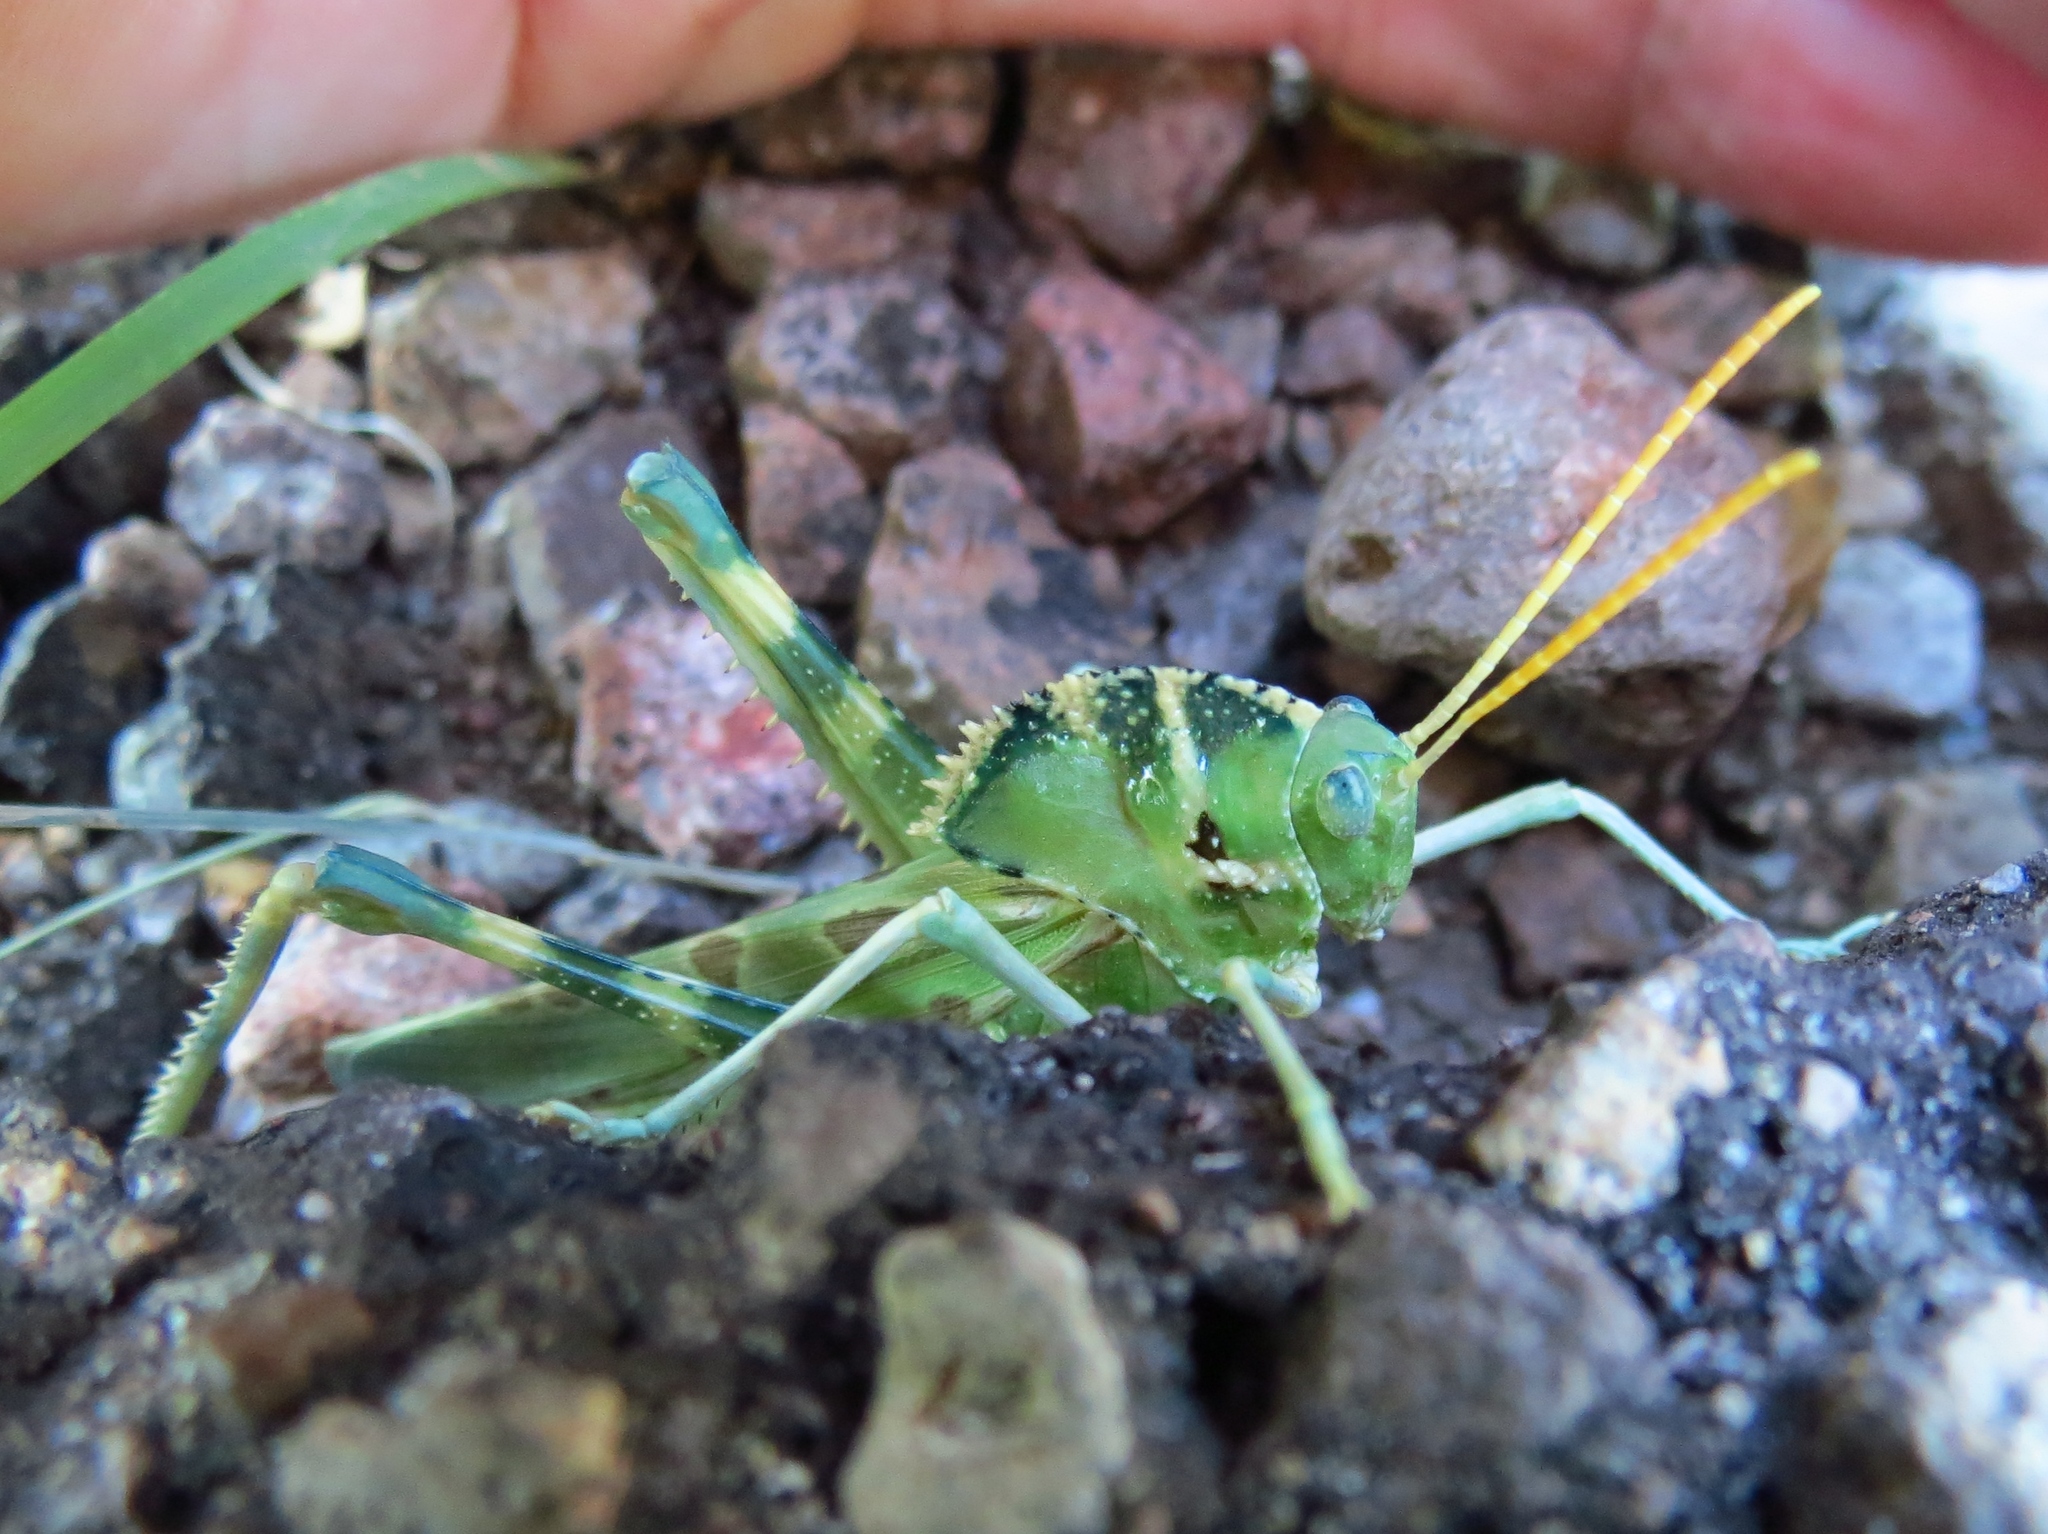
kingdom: Animalia
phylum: Arthropoda
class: Insecta
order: Orthoptera
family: Acrididae
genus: Tropidolophus
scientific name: Tropidolophus formosus
